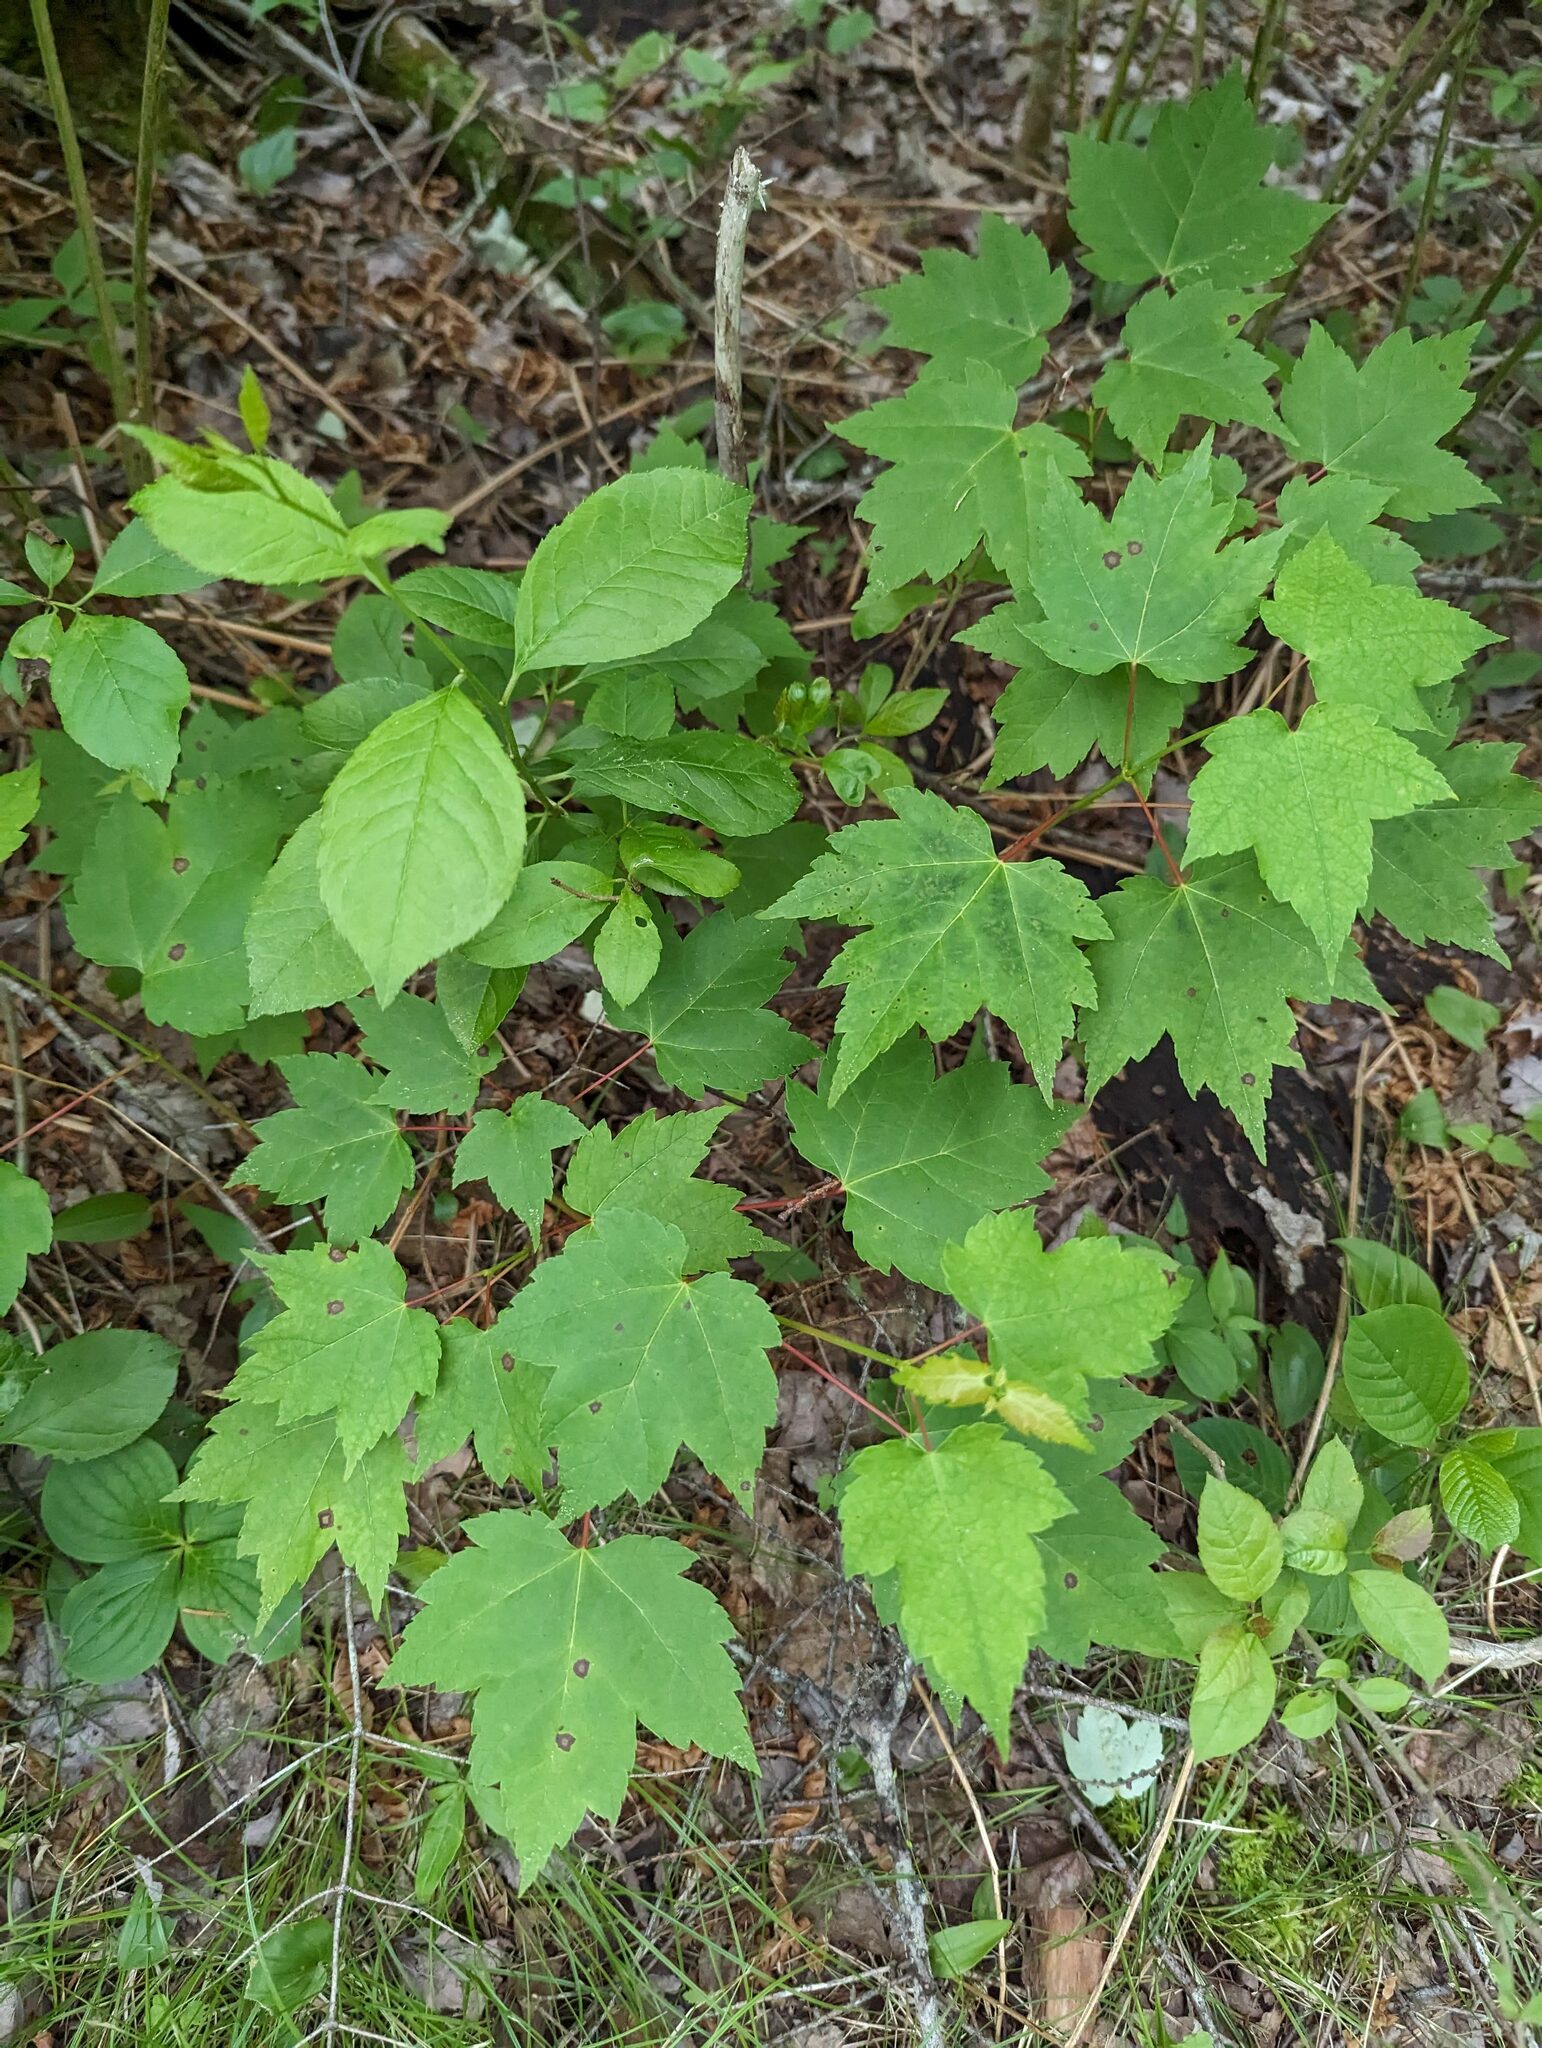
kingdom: Plantae
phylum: Tracheophyta
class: Magnoliopsida
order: Sapindales
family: Sapindaceae
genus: Acer
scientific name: Acer rubrum
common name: Red maple
